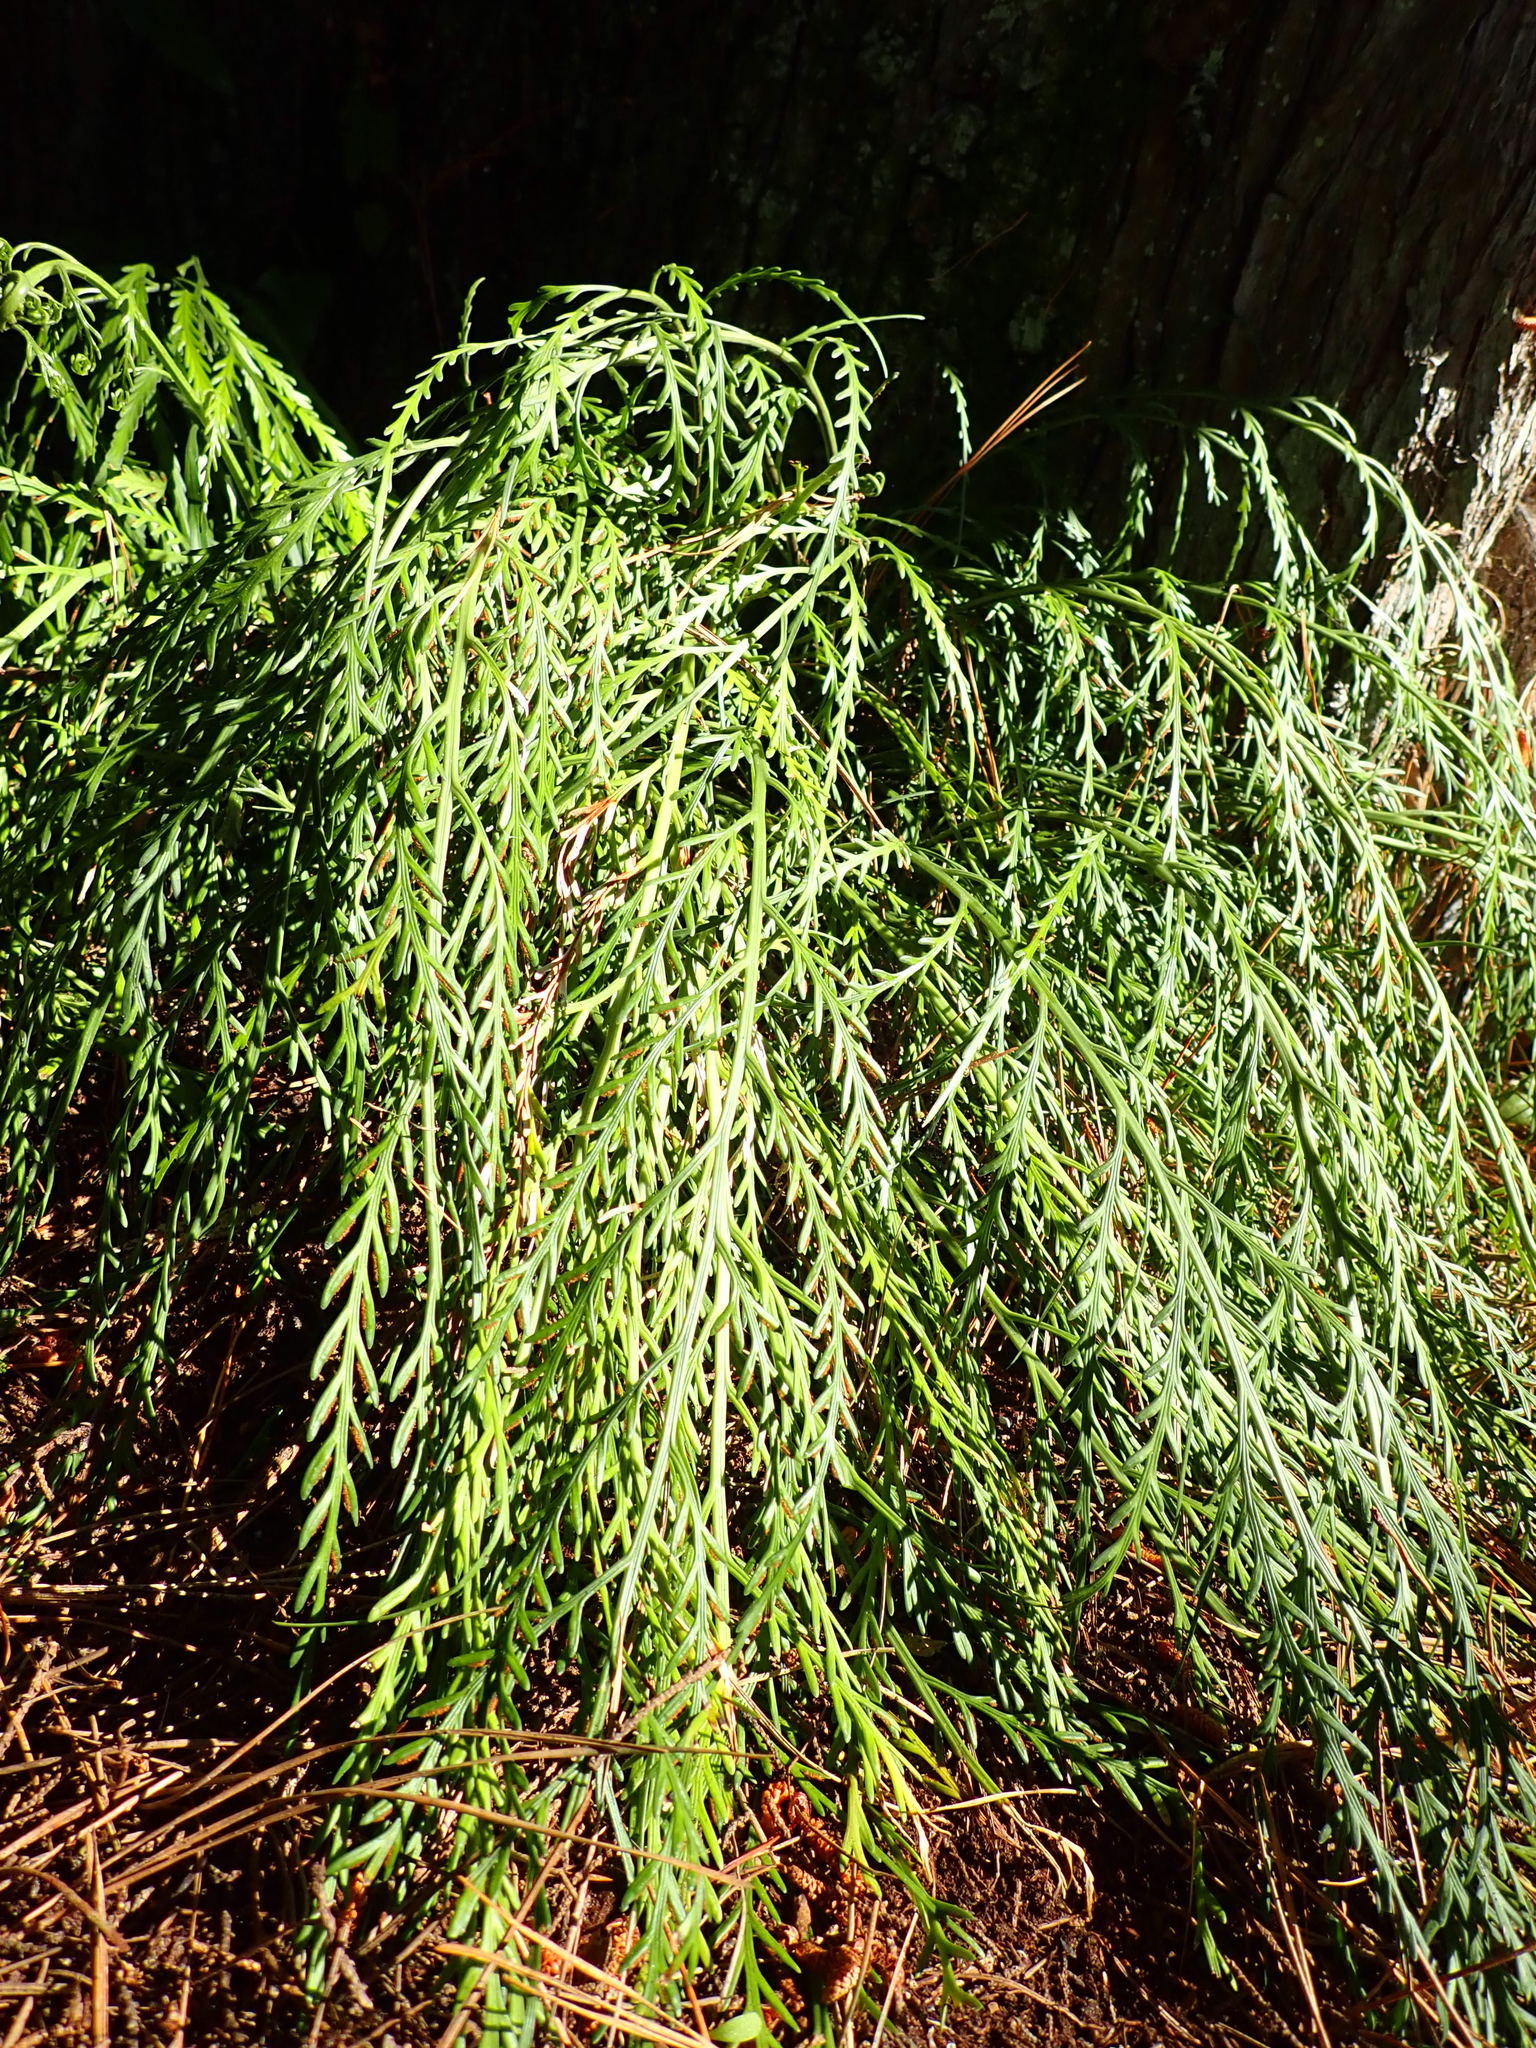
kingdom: Plantae
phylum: Tracheophyta
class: Polypodiopsida
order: Polypodiales
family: Aspleniaceae
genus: Asplenium
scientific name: Asplenium flaccidum
